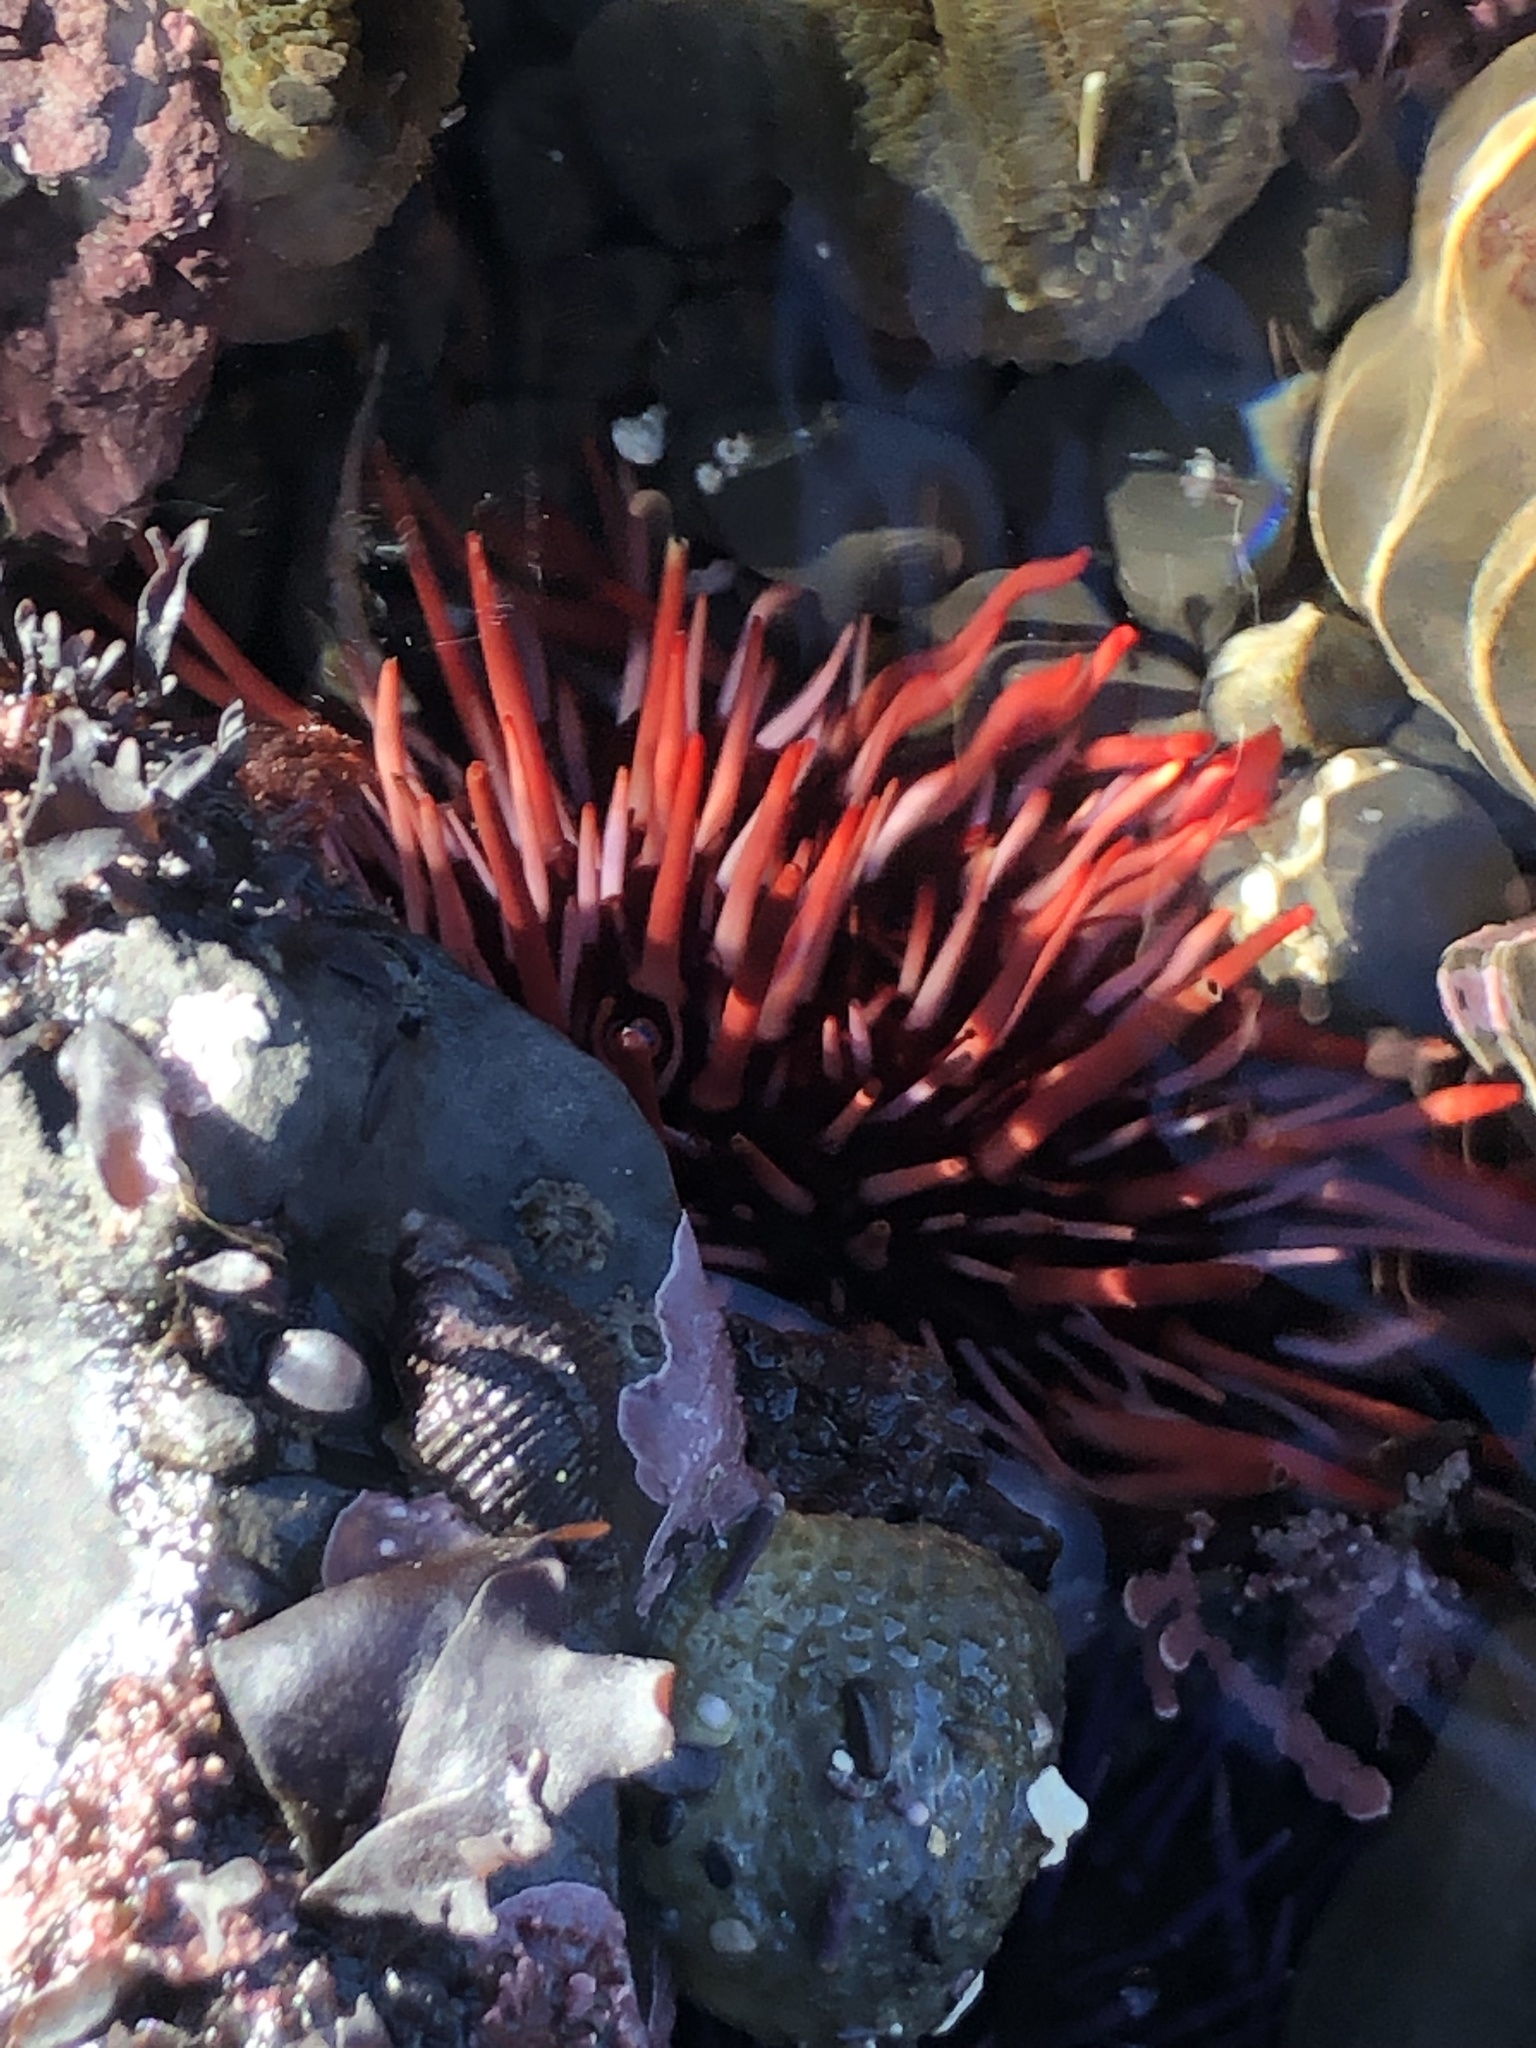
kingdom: Animalia
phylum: Echinodermata
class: Echinoidea
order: Camarodonta
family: Strongylocentrotidae
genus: Mesocentrotus
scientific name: Mesocentrotus franciscanus
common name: Red sea urchin
